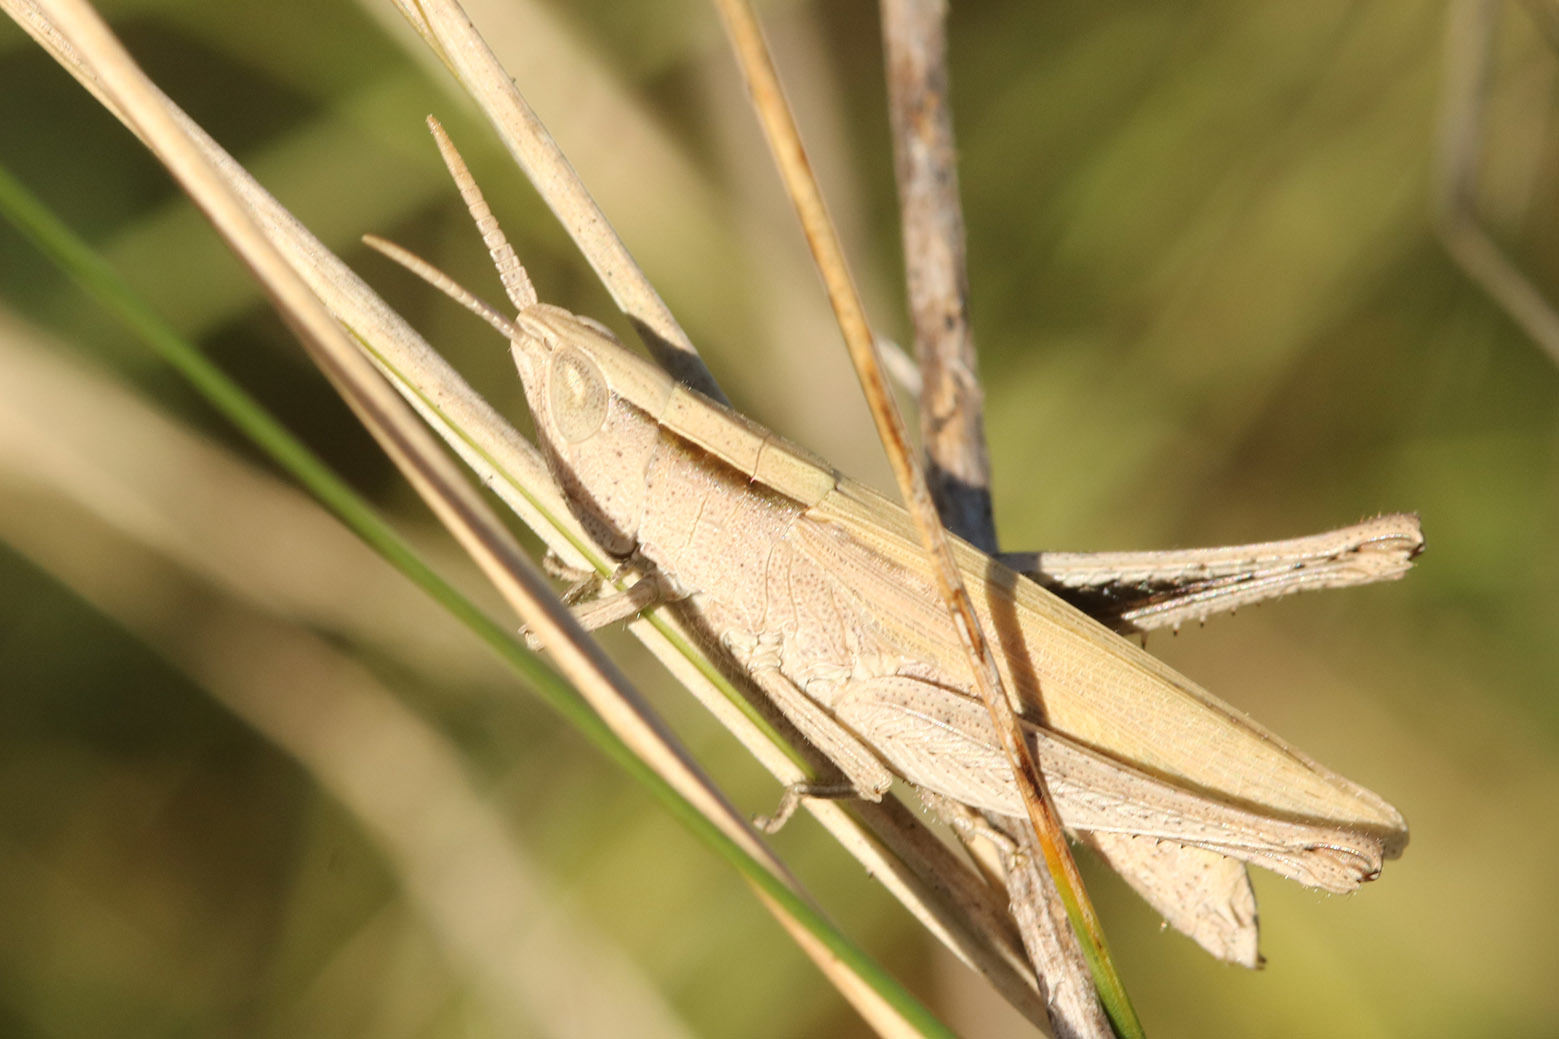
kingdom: Animalia
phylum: Arthropoda
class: Insecta
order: Orthoptera
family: Acrididae
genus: Laplatacris
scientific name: Laplatacris dispar
